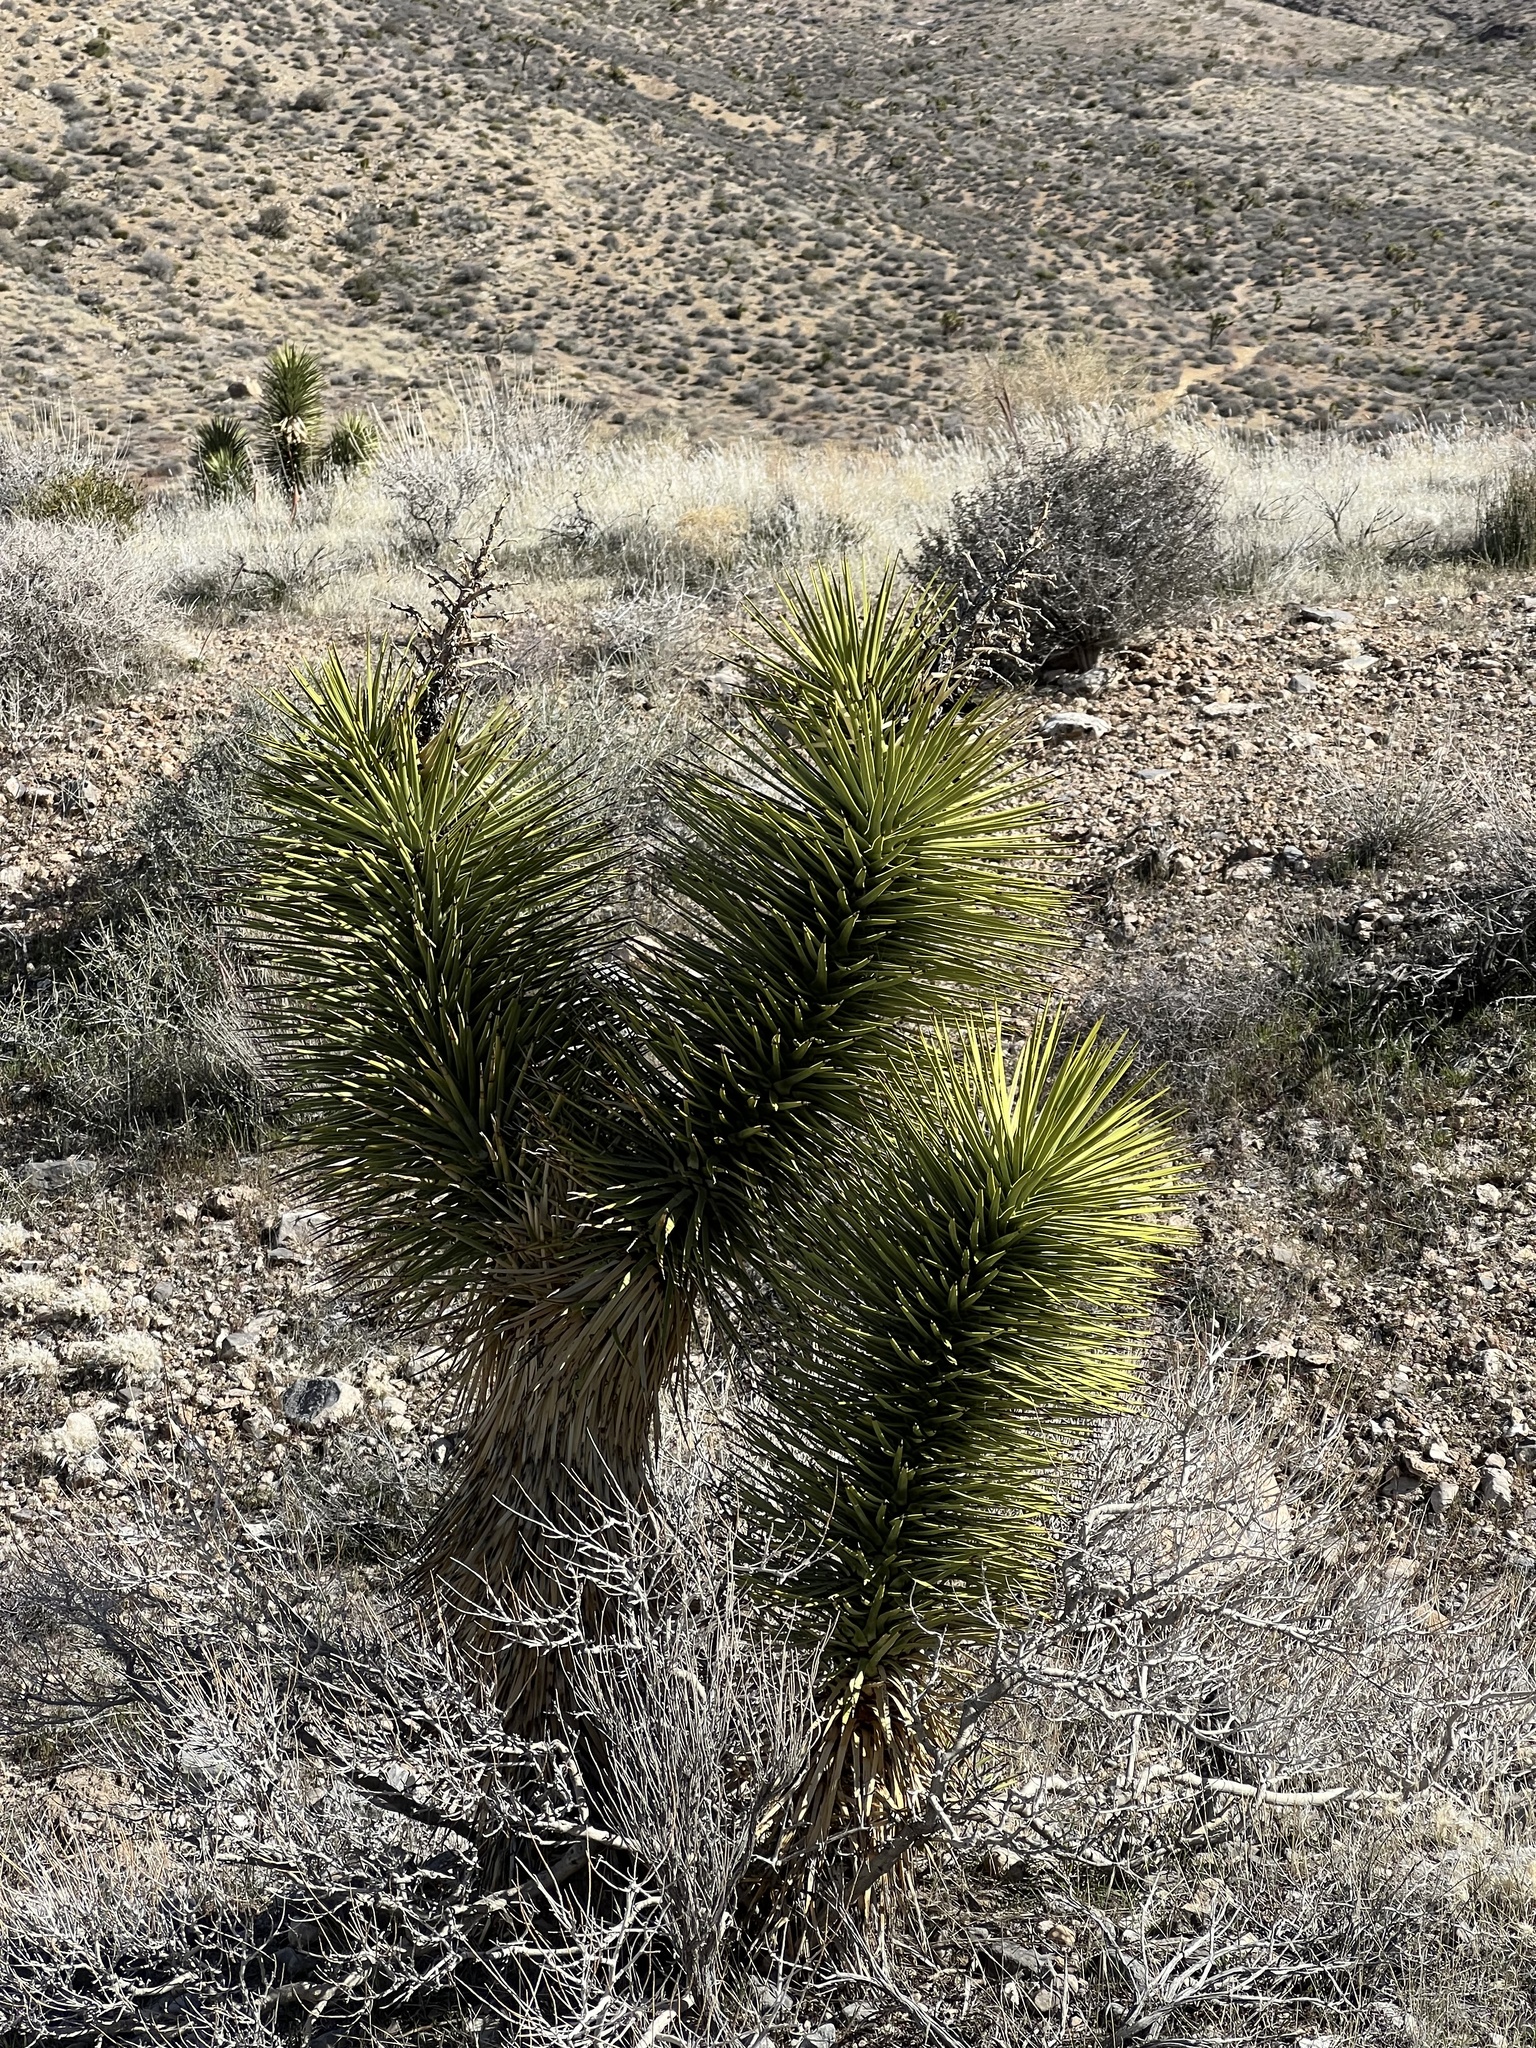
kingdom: Plantae
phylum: Tracheophyta
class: Liliopsida
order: Asparagales
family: Asparagaceae
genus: Yucca
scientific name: Yucca brevifolia
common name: Joshua tree
